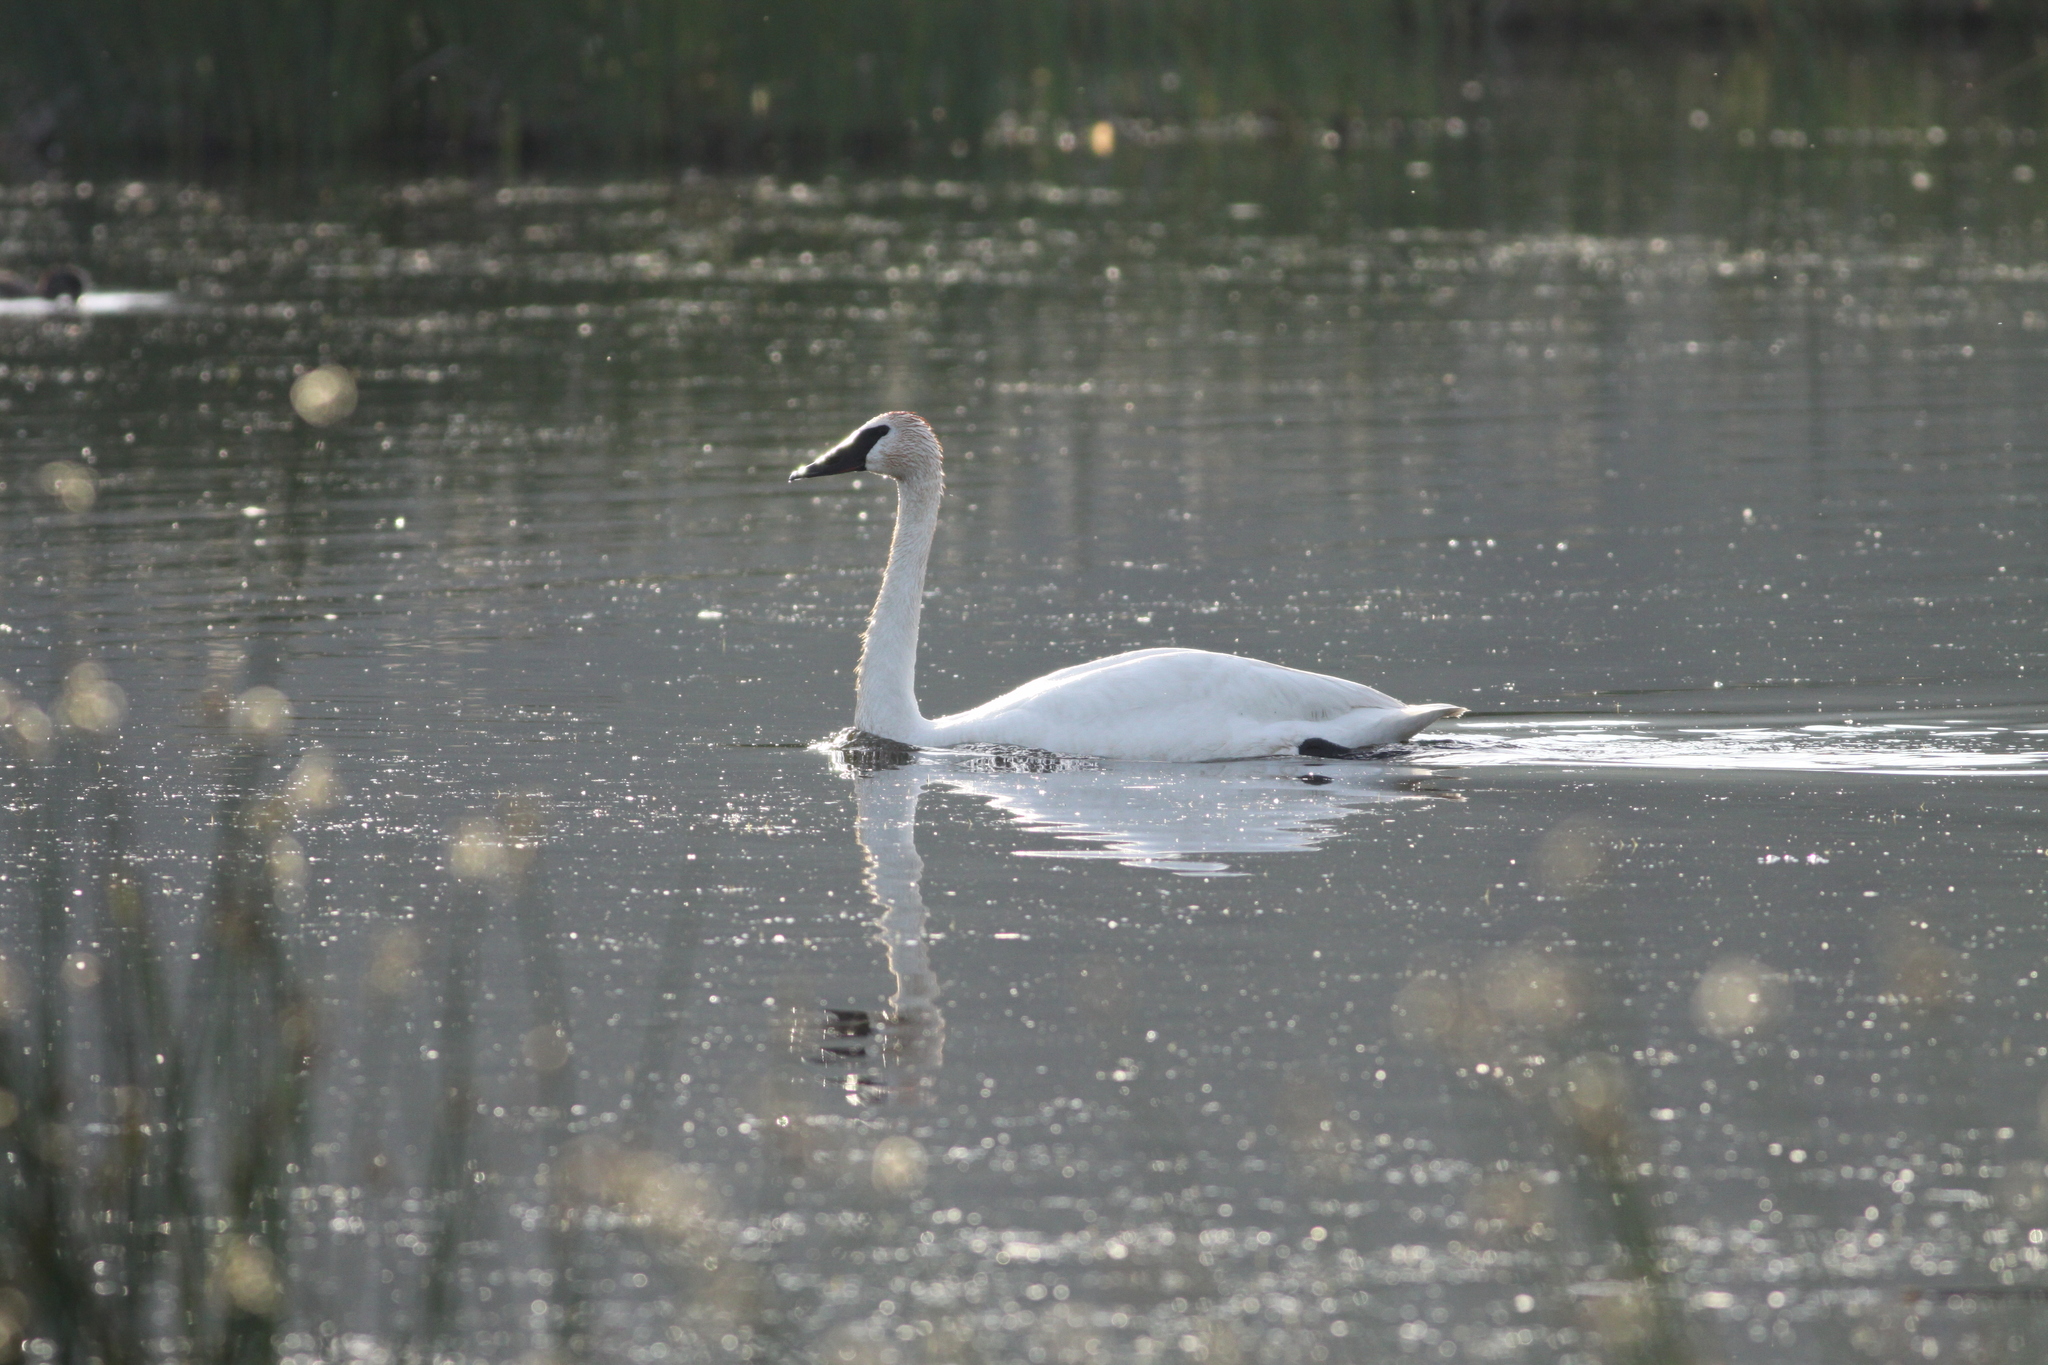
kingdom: Animalia
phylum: Chordata
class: Aves
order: Anseriformes
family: Anatidae
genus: Cygnus
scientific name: Cygnus buccinator
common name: Trumpeter swan
